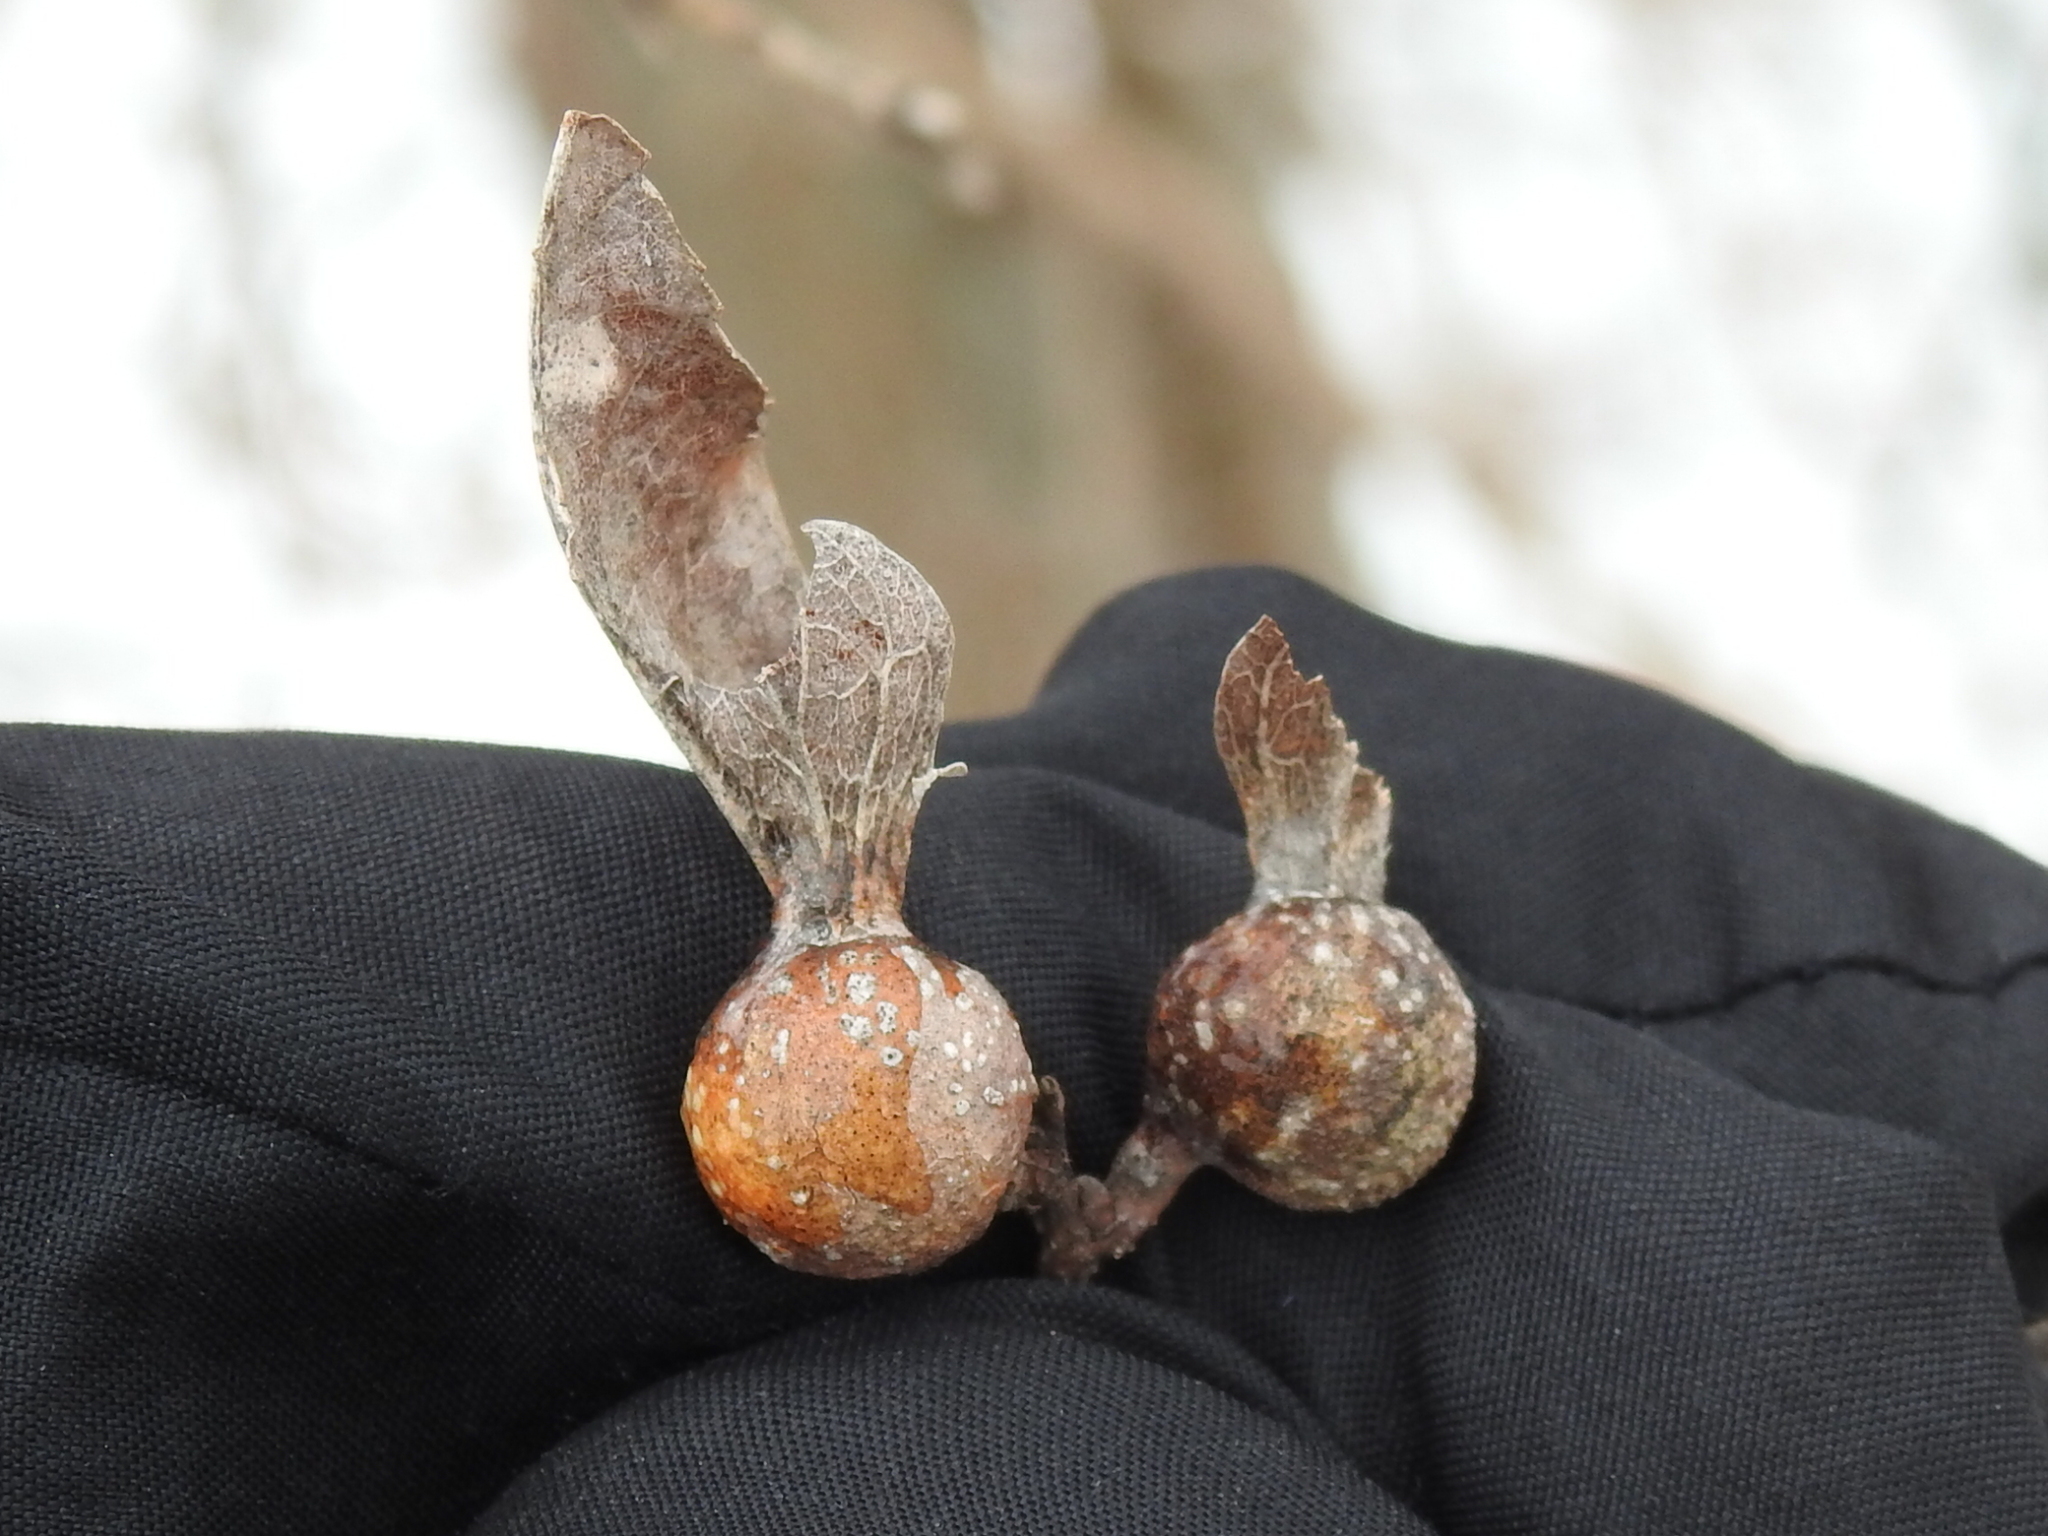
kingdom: Animalia
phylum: Arthropoda
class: Insecta
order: Hemiptera
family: Aphalaridae
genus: Pachypsylla
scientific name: Pachypsylla venusta
